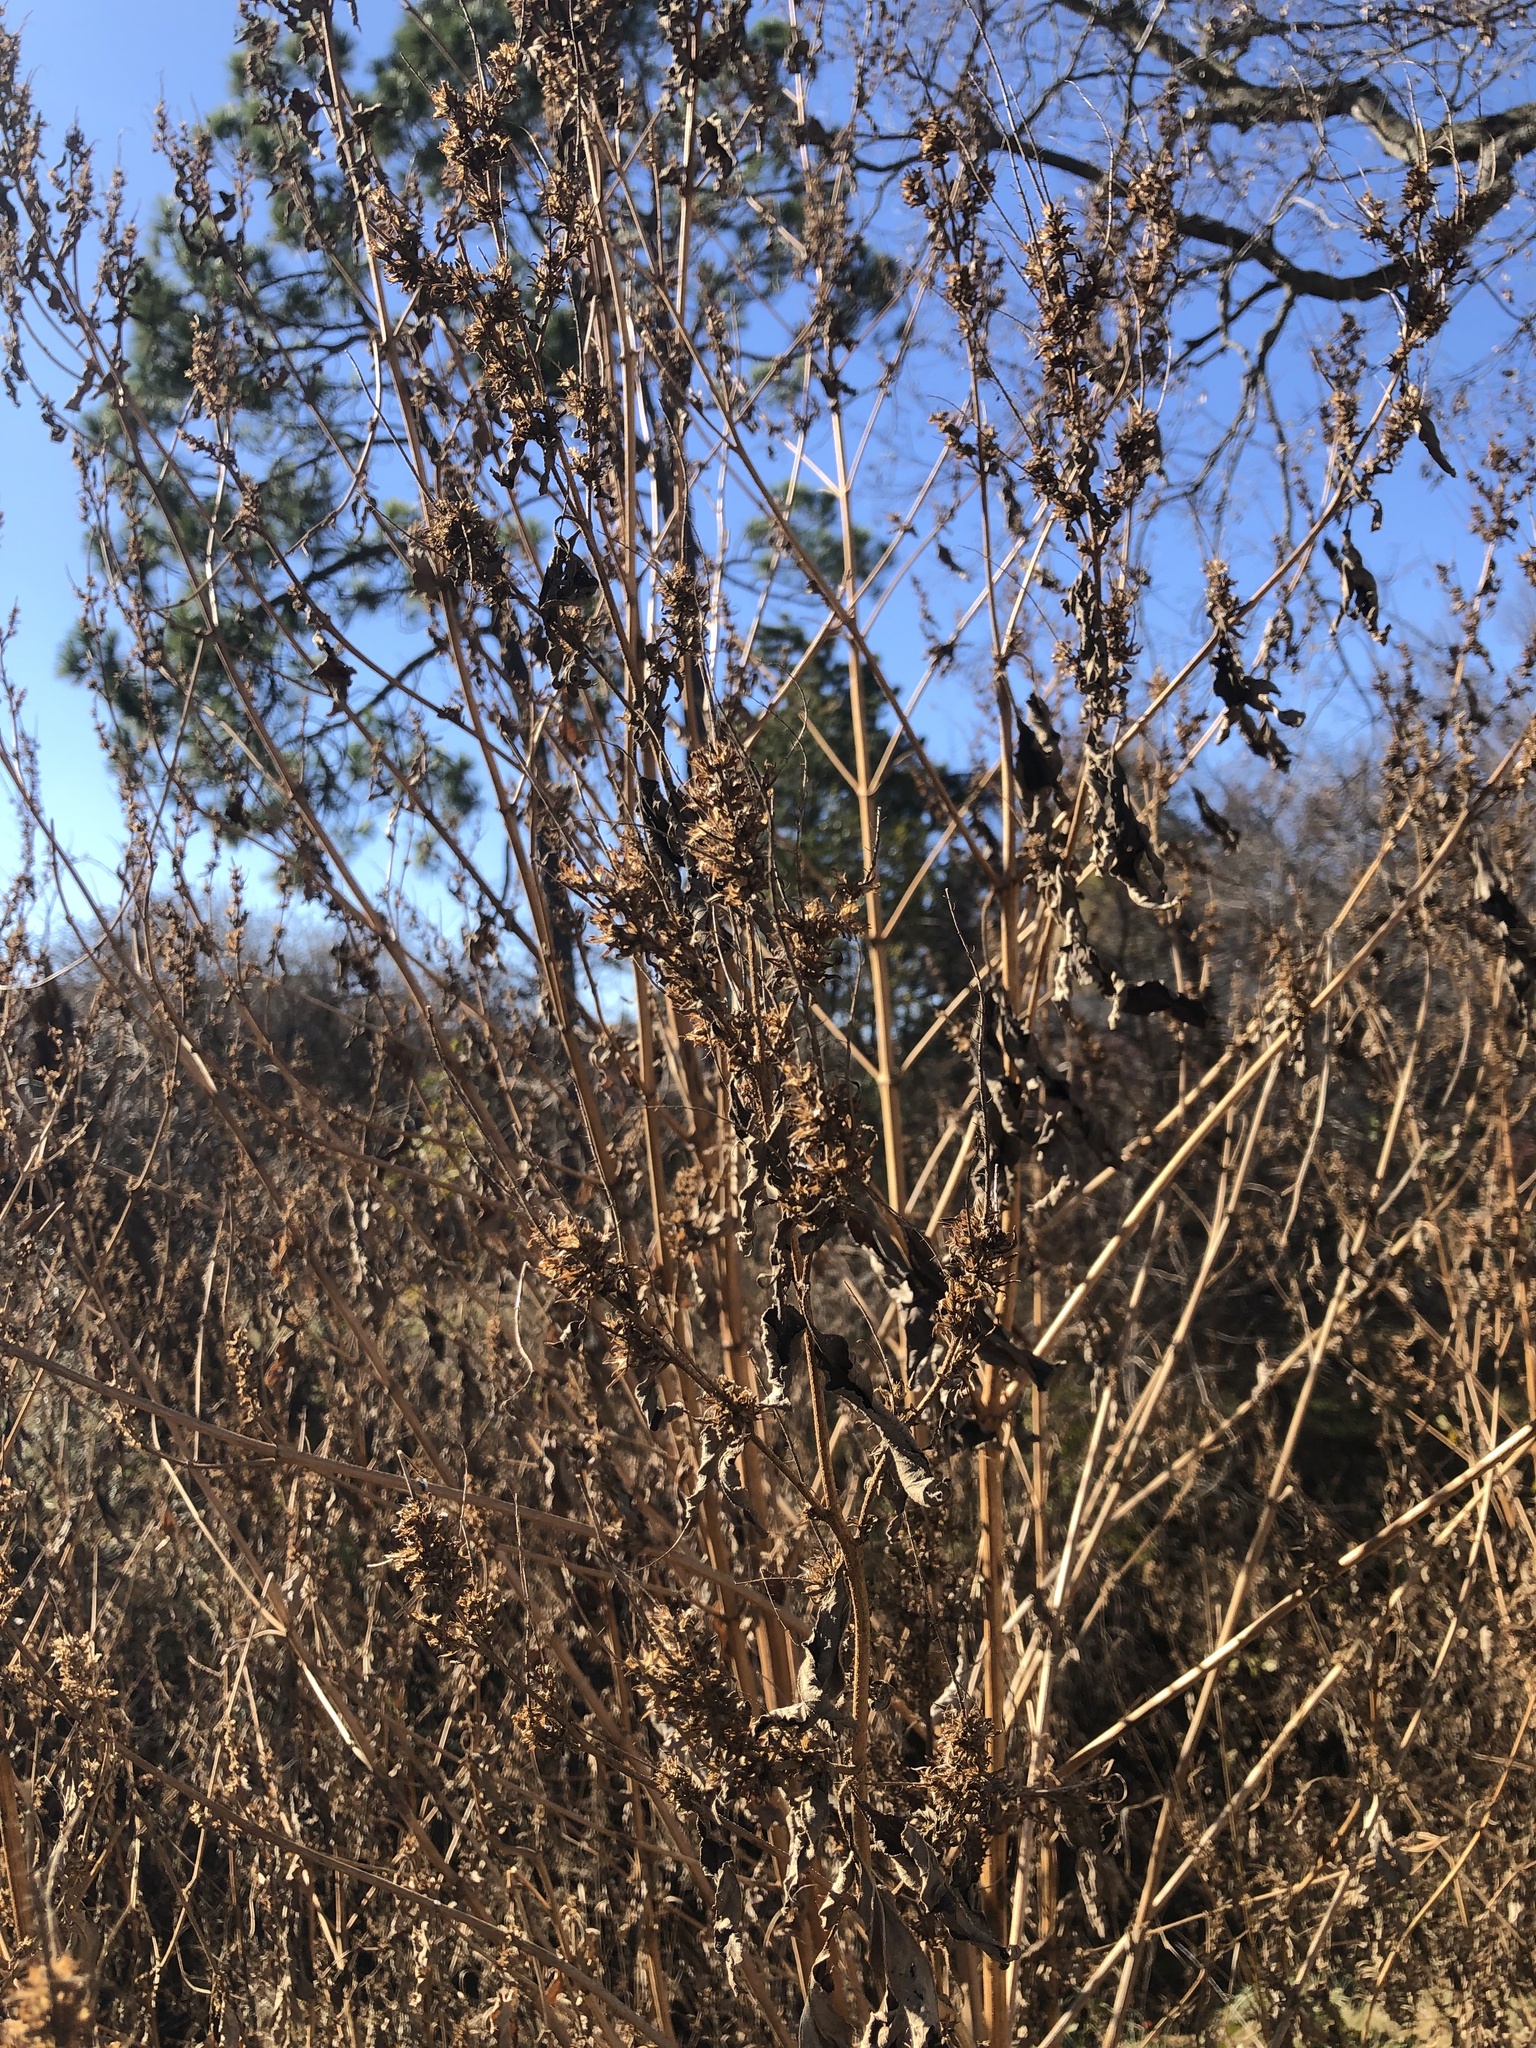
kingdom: Plantae
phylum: Tracheophyta
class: Magnoliopsida
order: Asterales
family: Asteraceae
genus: Ambrosia
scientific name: Ambrosia trifida
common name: Giant ragweed
